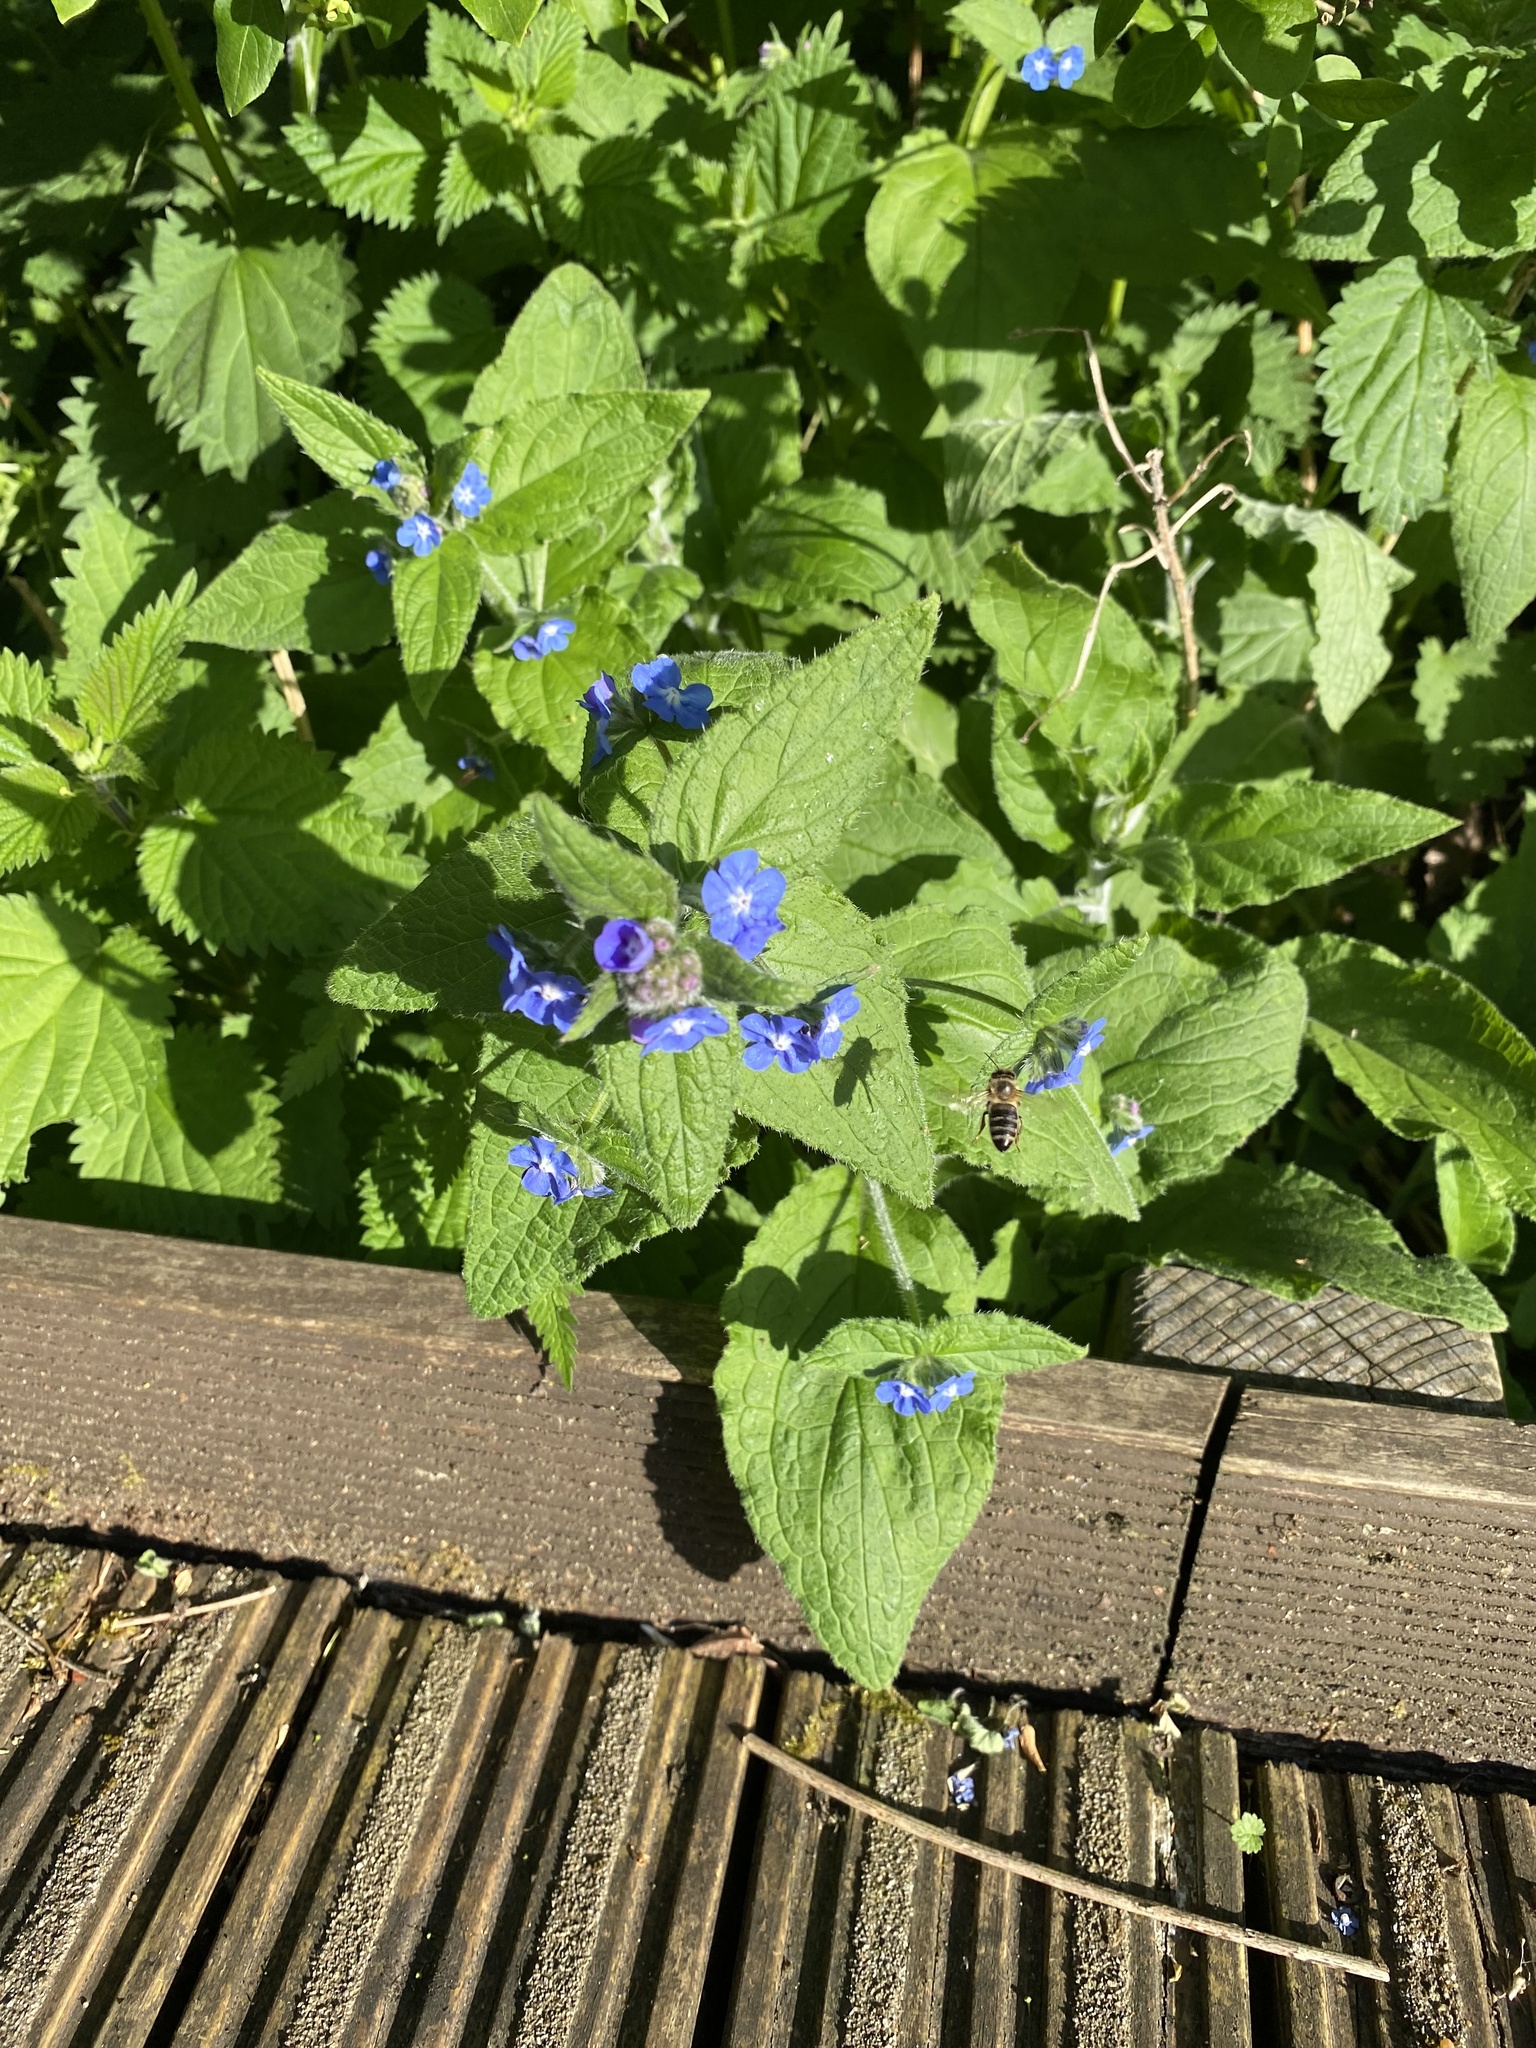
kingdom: Animalia
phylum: Arthropoda
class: Insecta
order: Hymenoptera
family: Apidae
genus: Apis
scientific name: Apis mellifera
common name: Honey bee
